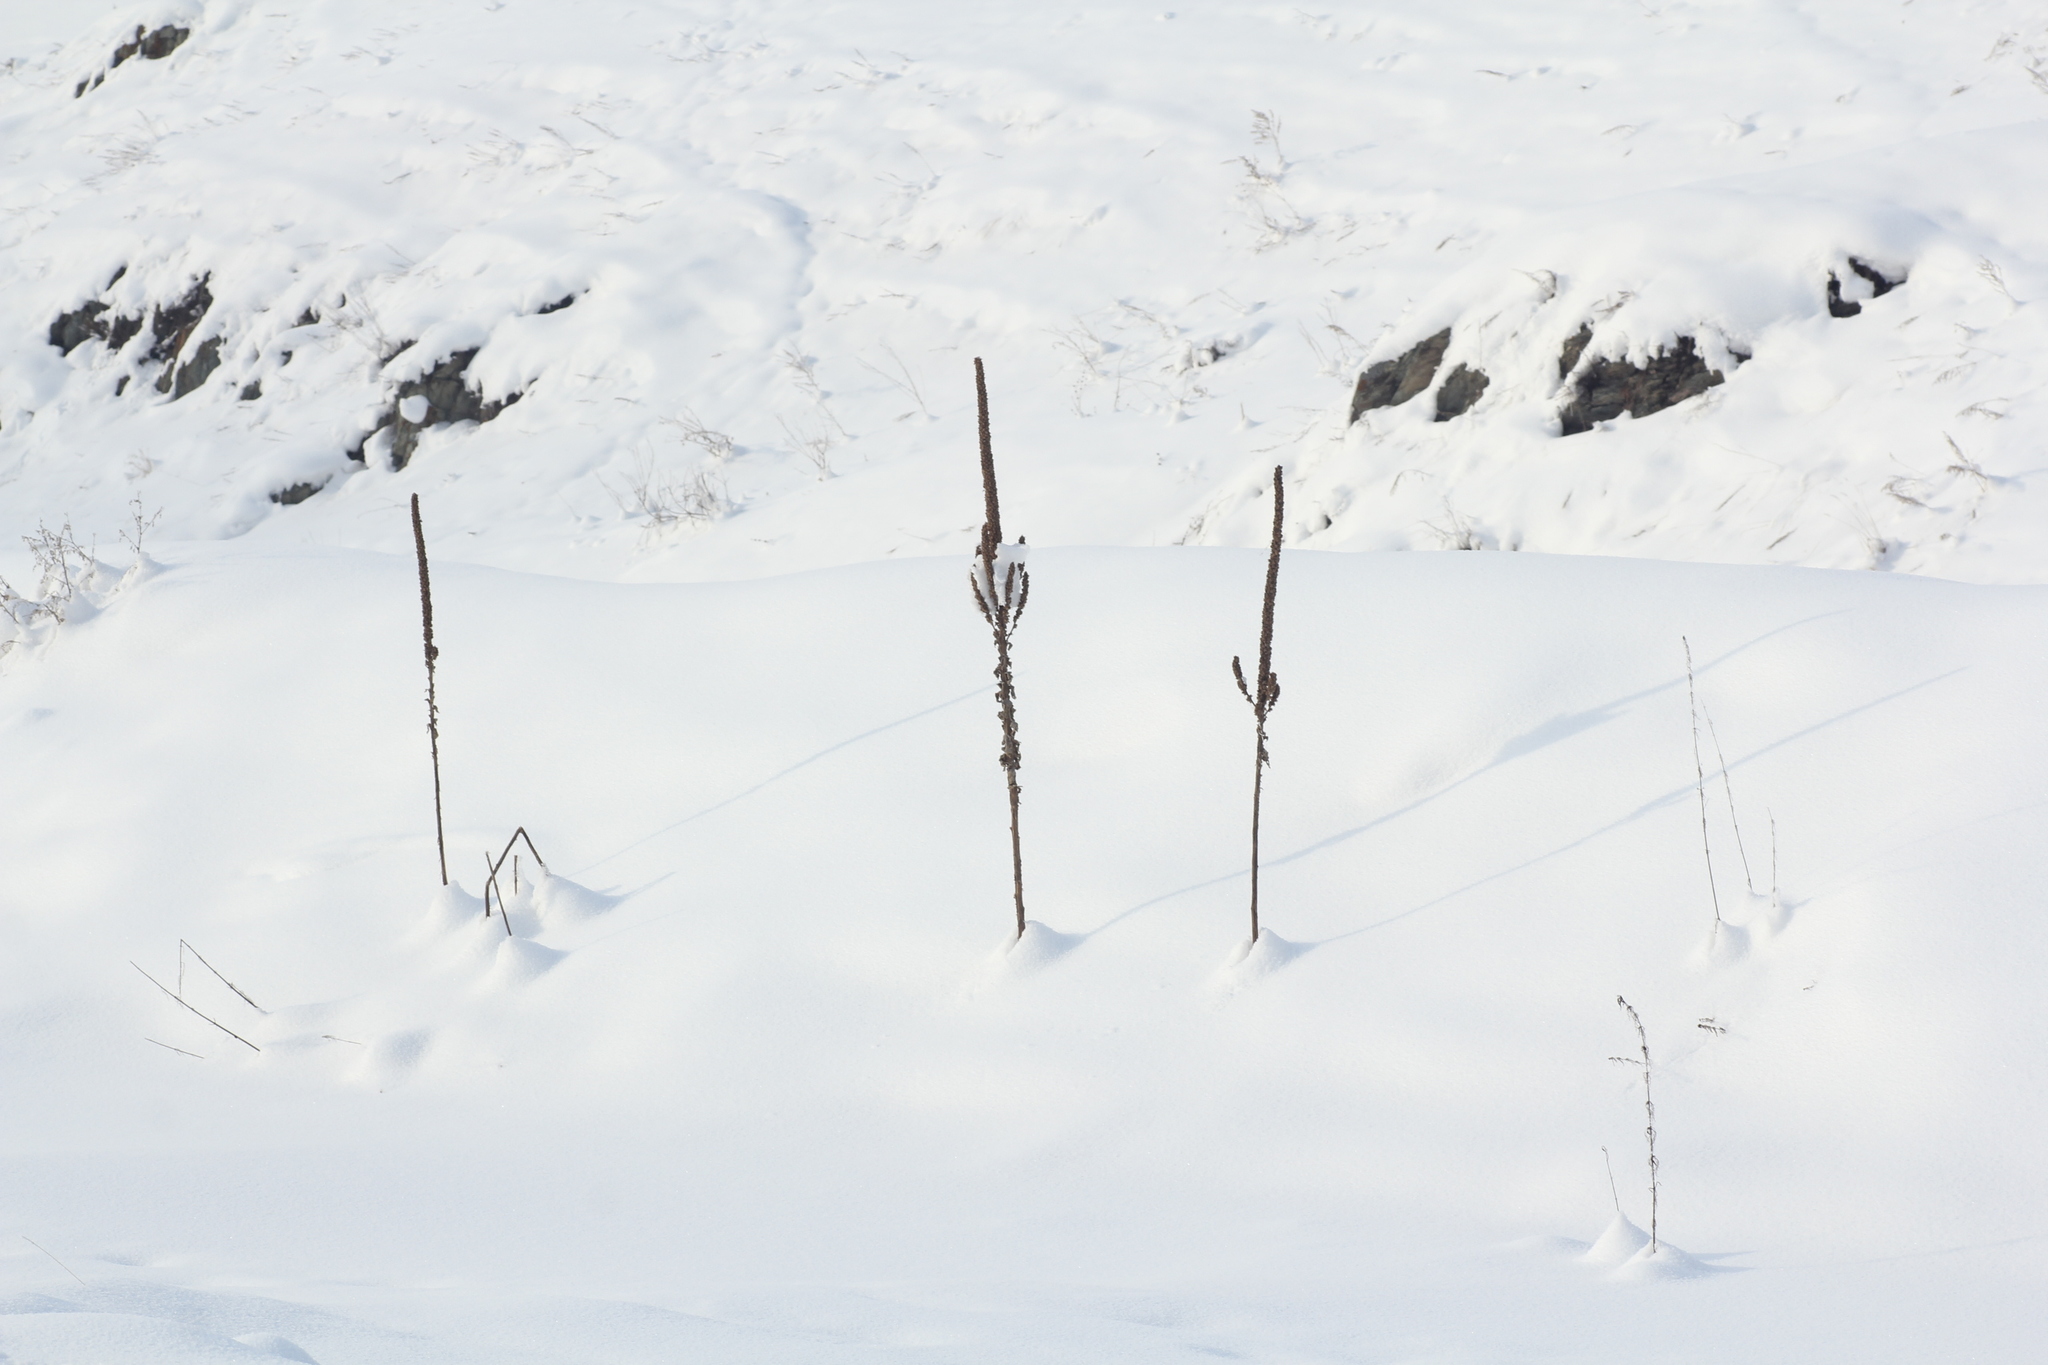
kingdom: Plantae
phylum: Tracheophyta
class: Magnoliopsida
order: Lamiales
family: Scrophulariaceae
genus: Verbascum
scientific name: Verbascum thapsus
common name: Common mullein
